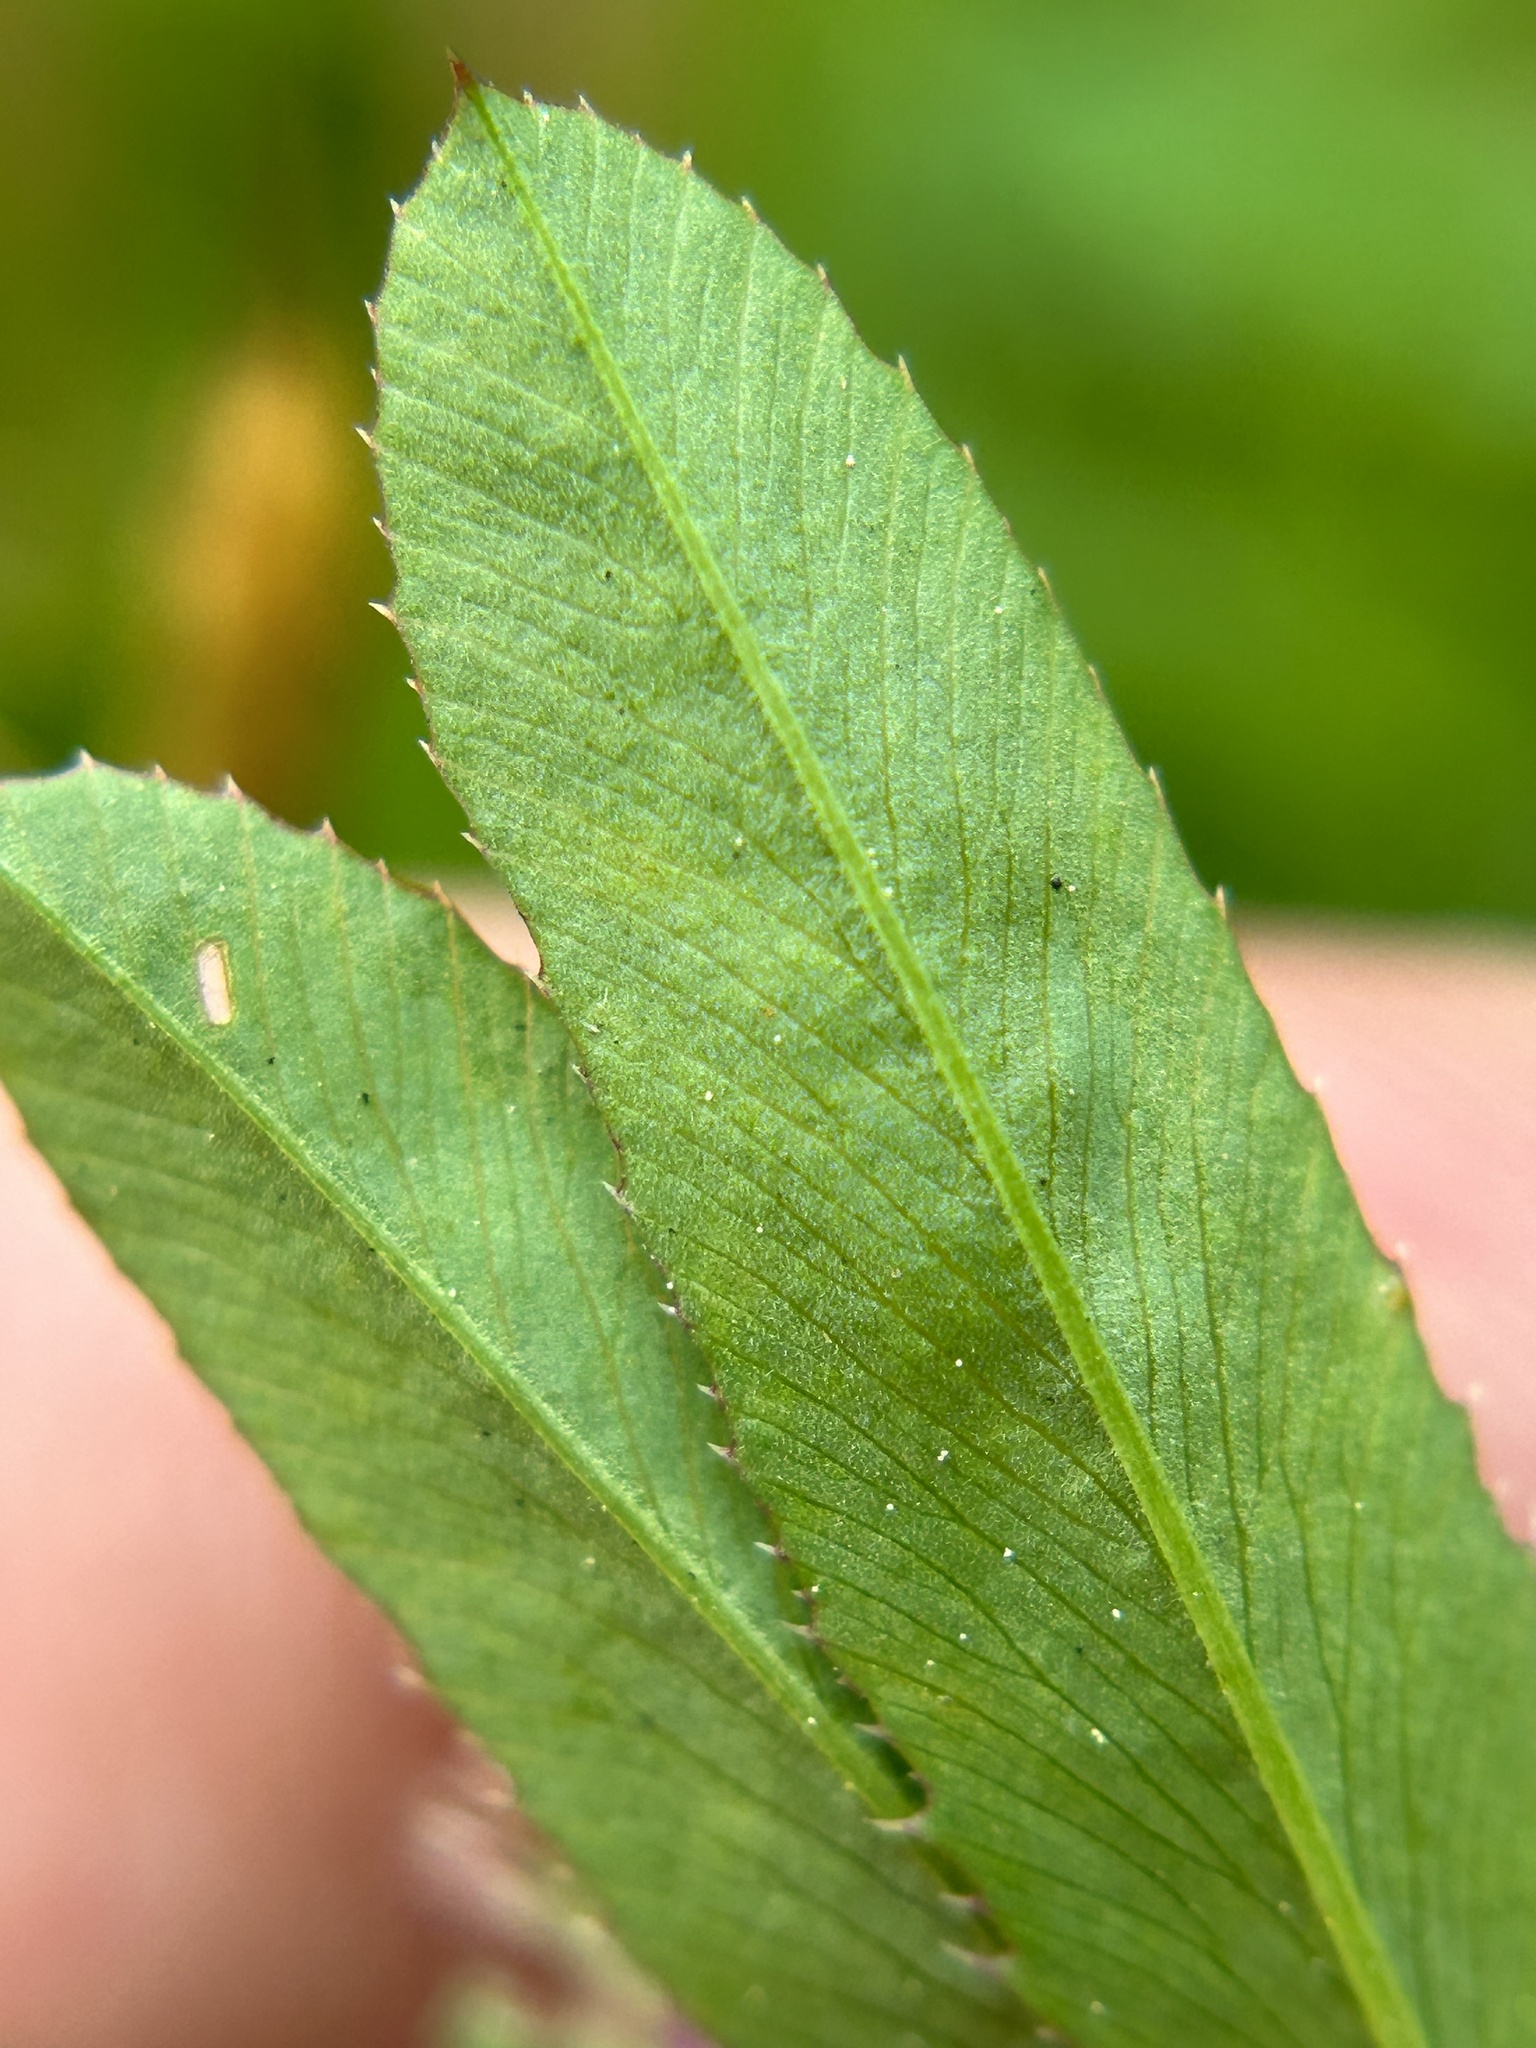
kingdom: Plantae
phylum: Tracheophyta
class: Magnoliopsida
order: Fabales
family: Fabaceae
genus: Trifolium
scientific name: Trifolium ciliolatum
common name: Foothill clover
